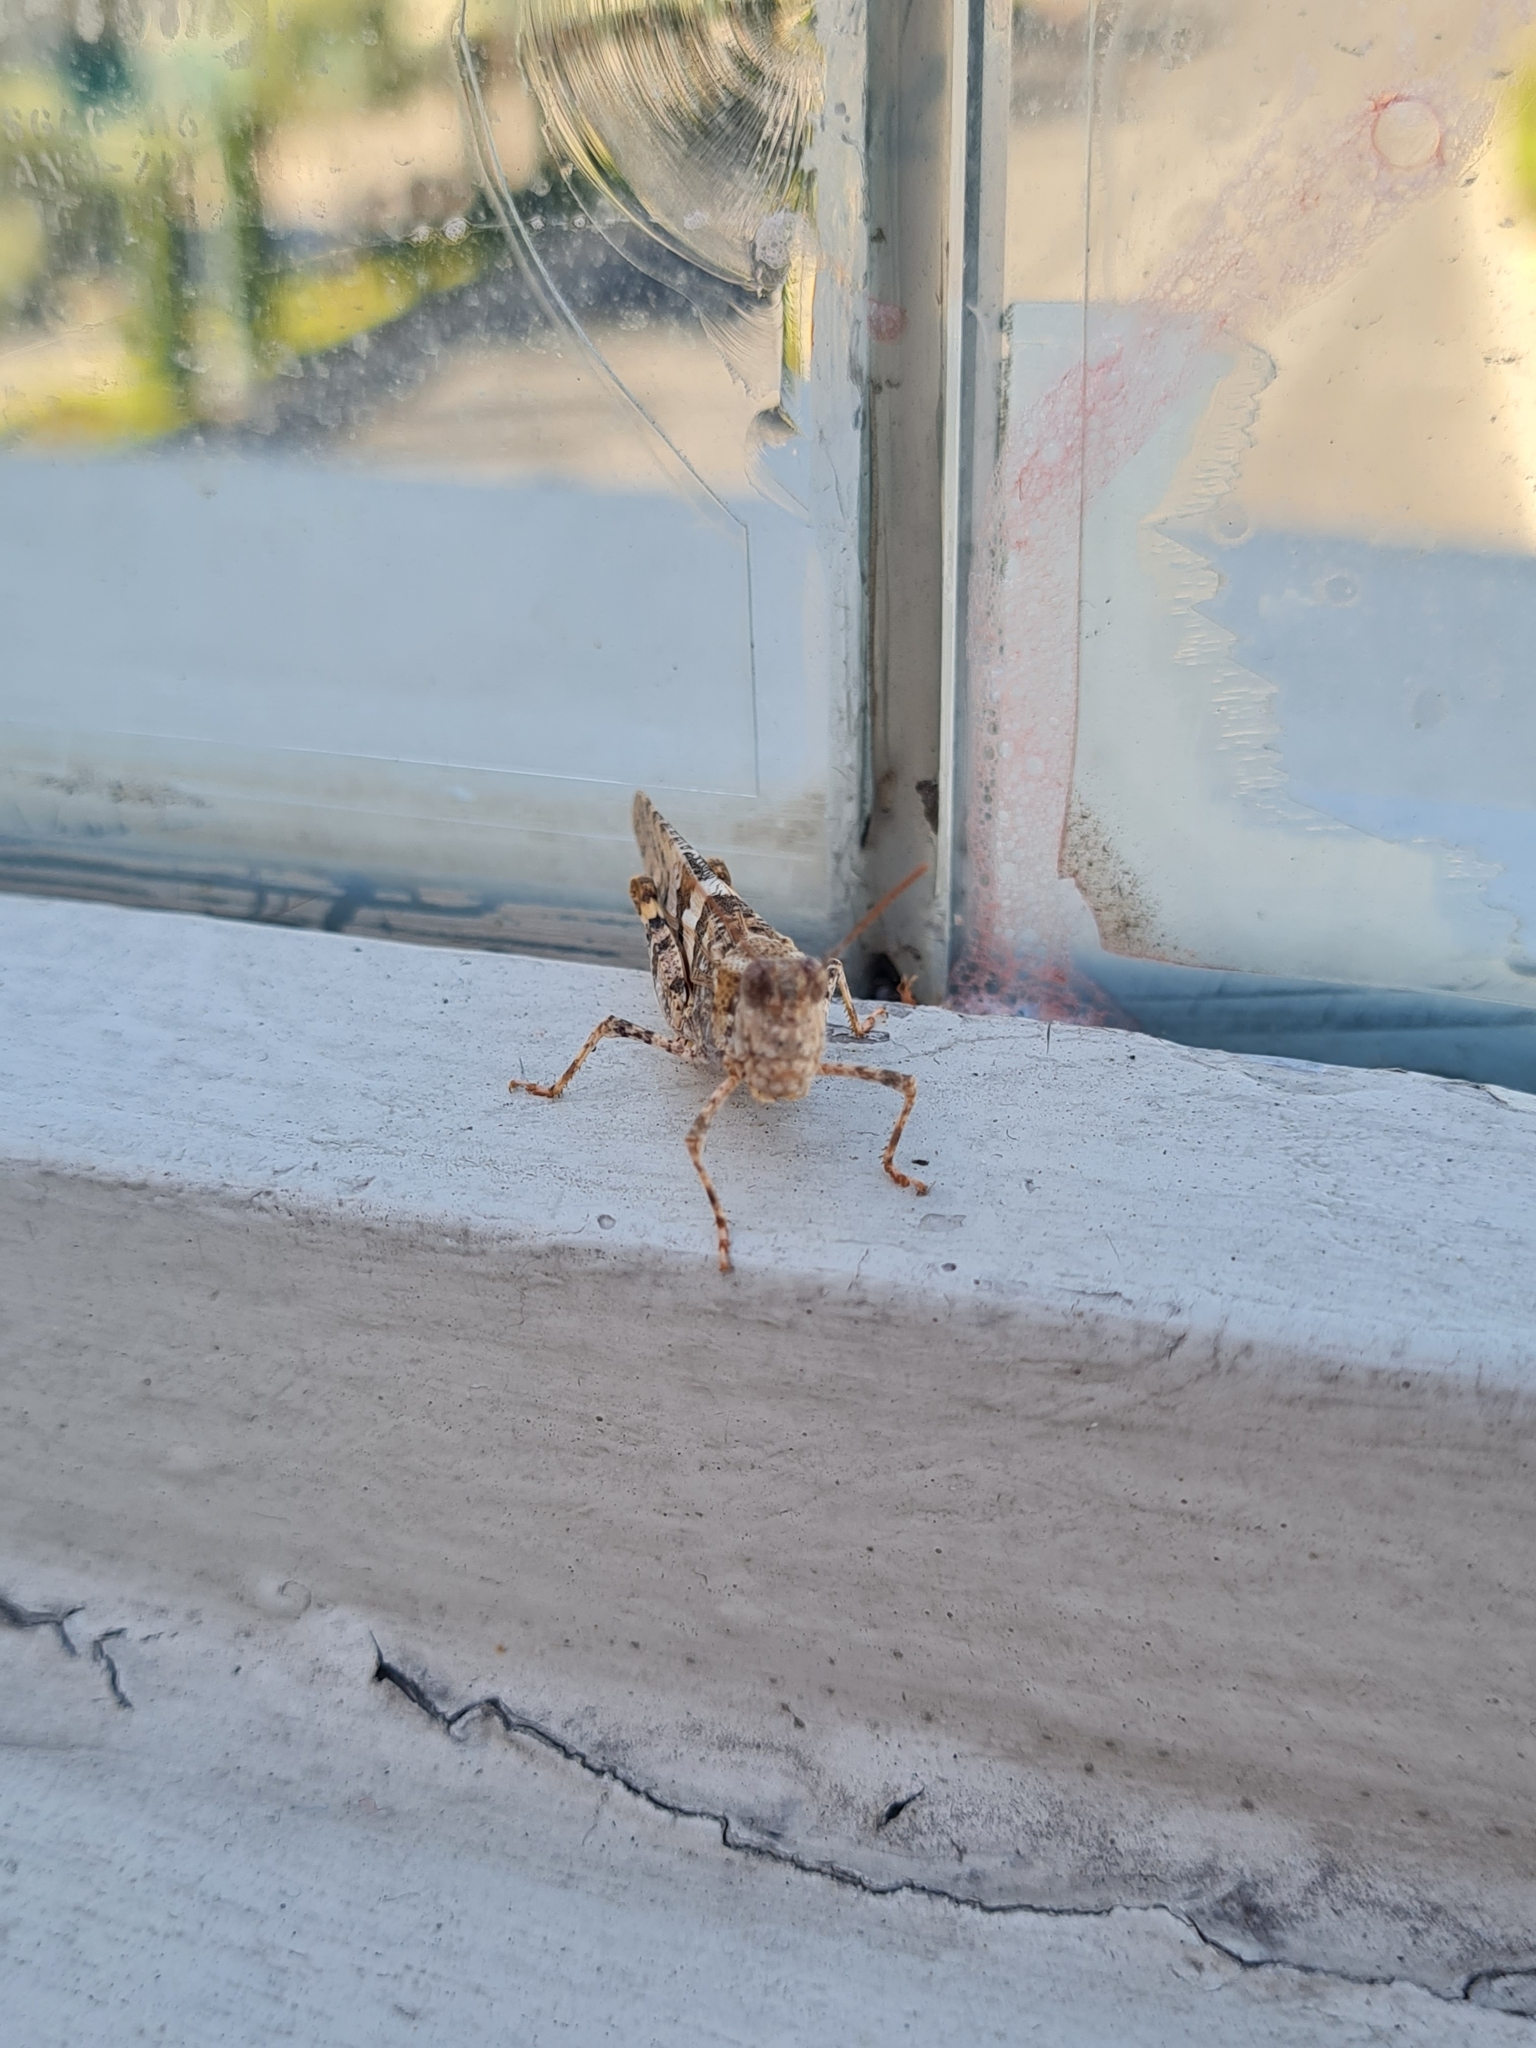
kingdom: Animalia
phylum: Arthropoda
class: Insecta
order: Orthoptera
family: Acrididae
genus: Trimerotropis
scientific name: Trimerotropis pallidipennis
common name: Pallid-winged grasshopper
